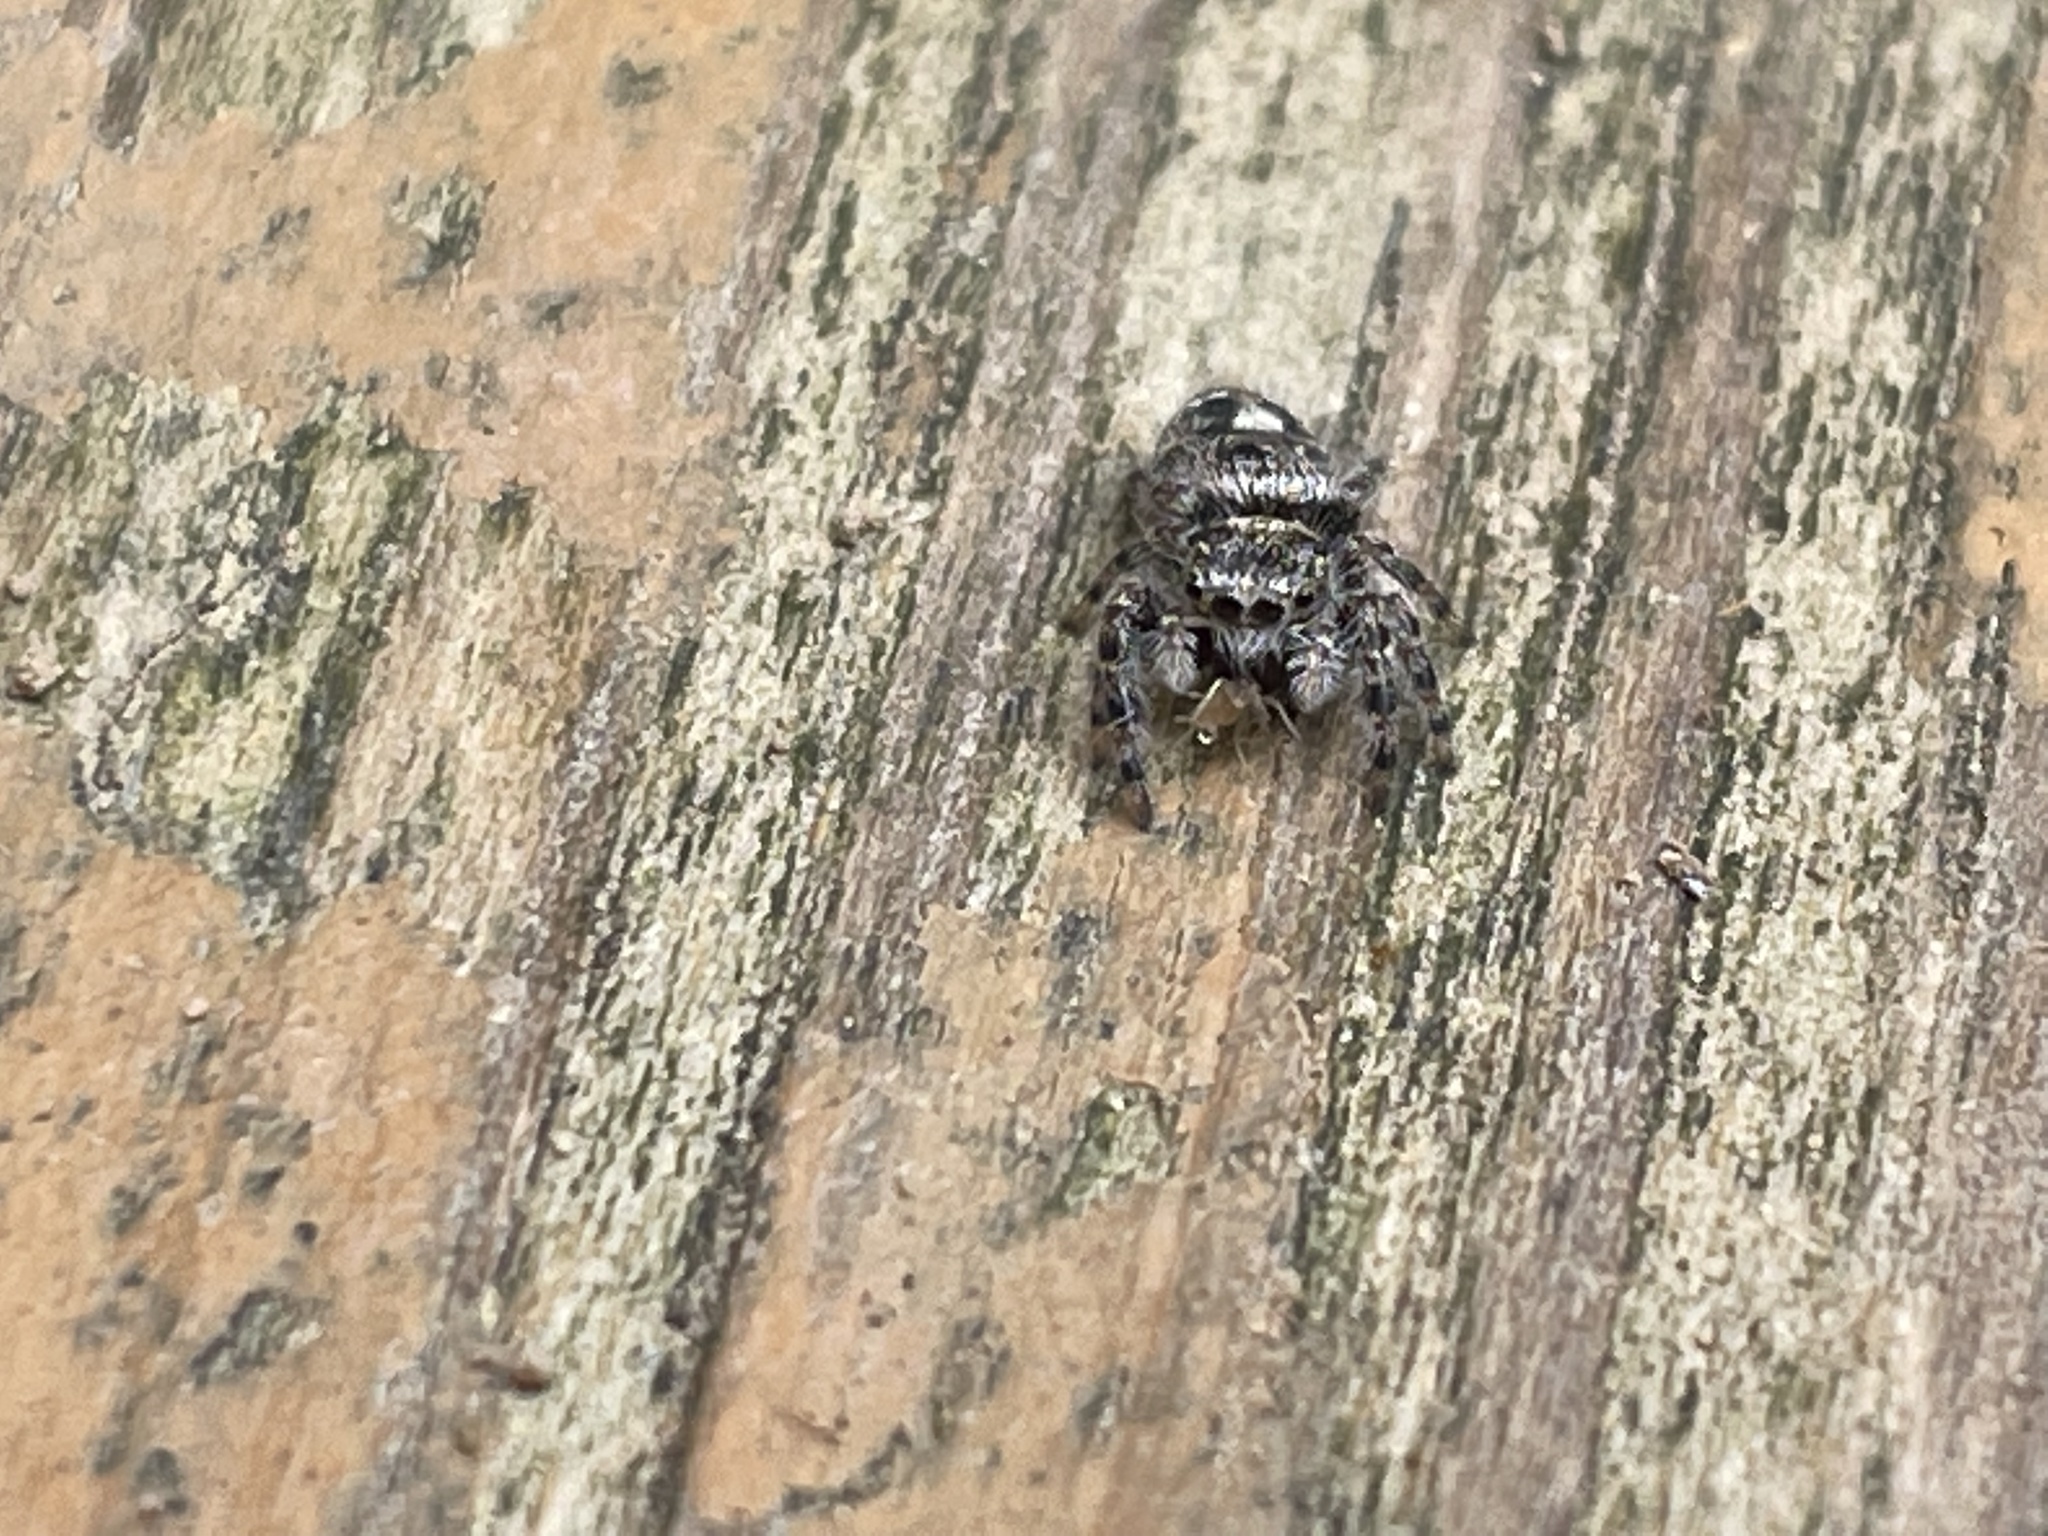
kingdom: Animalia
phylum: Arthropoda
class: Arachnida
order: Araneae
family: Salticidae
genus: Phidippus
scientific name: Phidippus putnami
